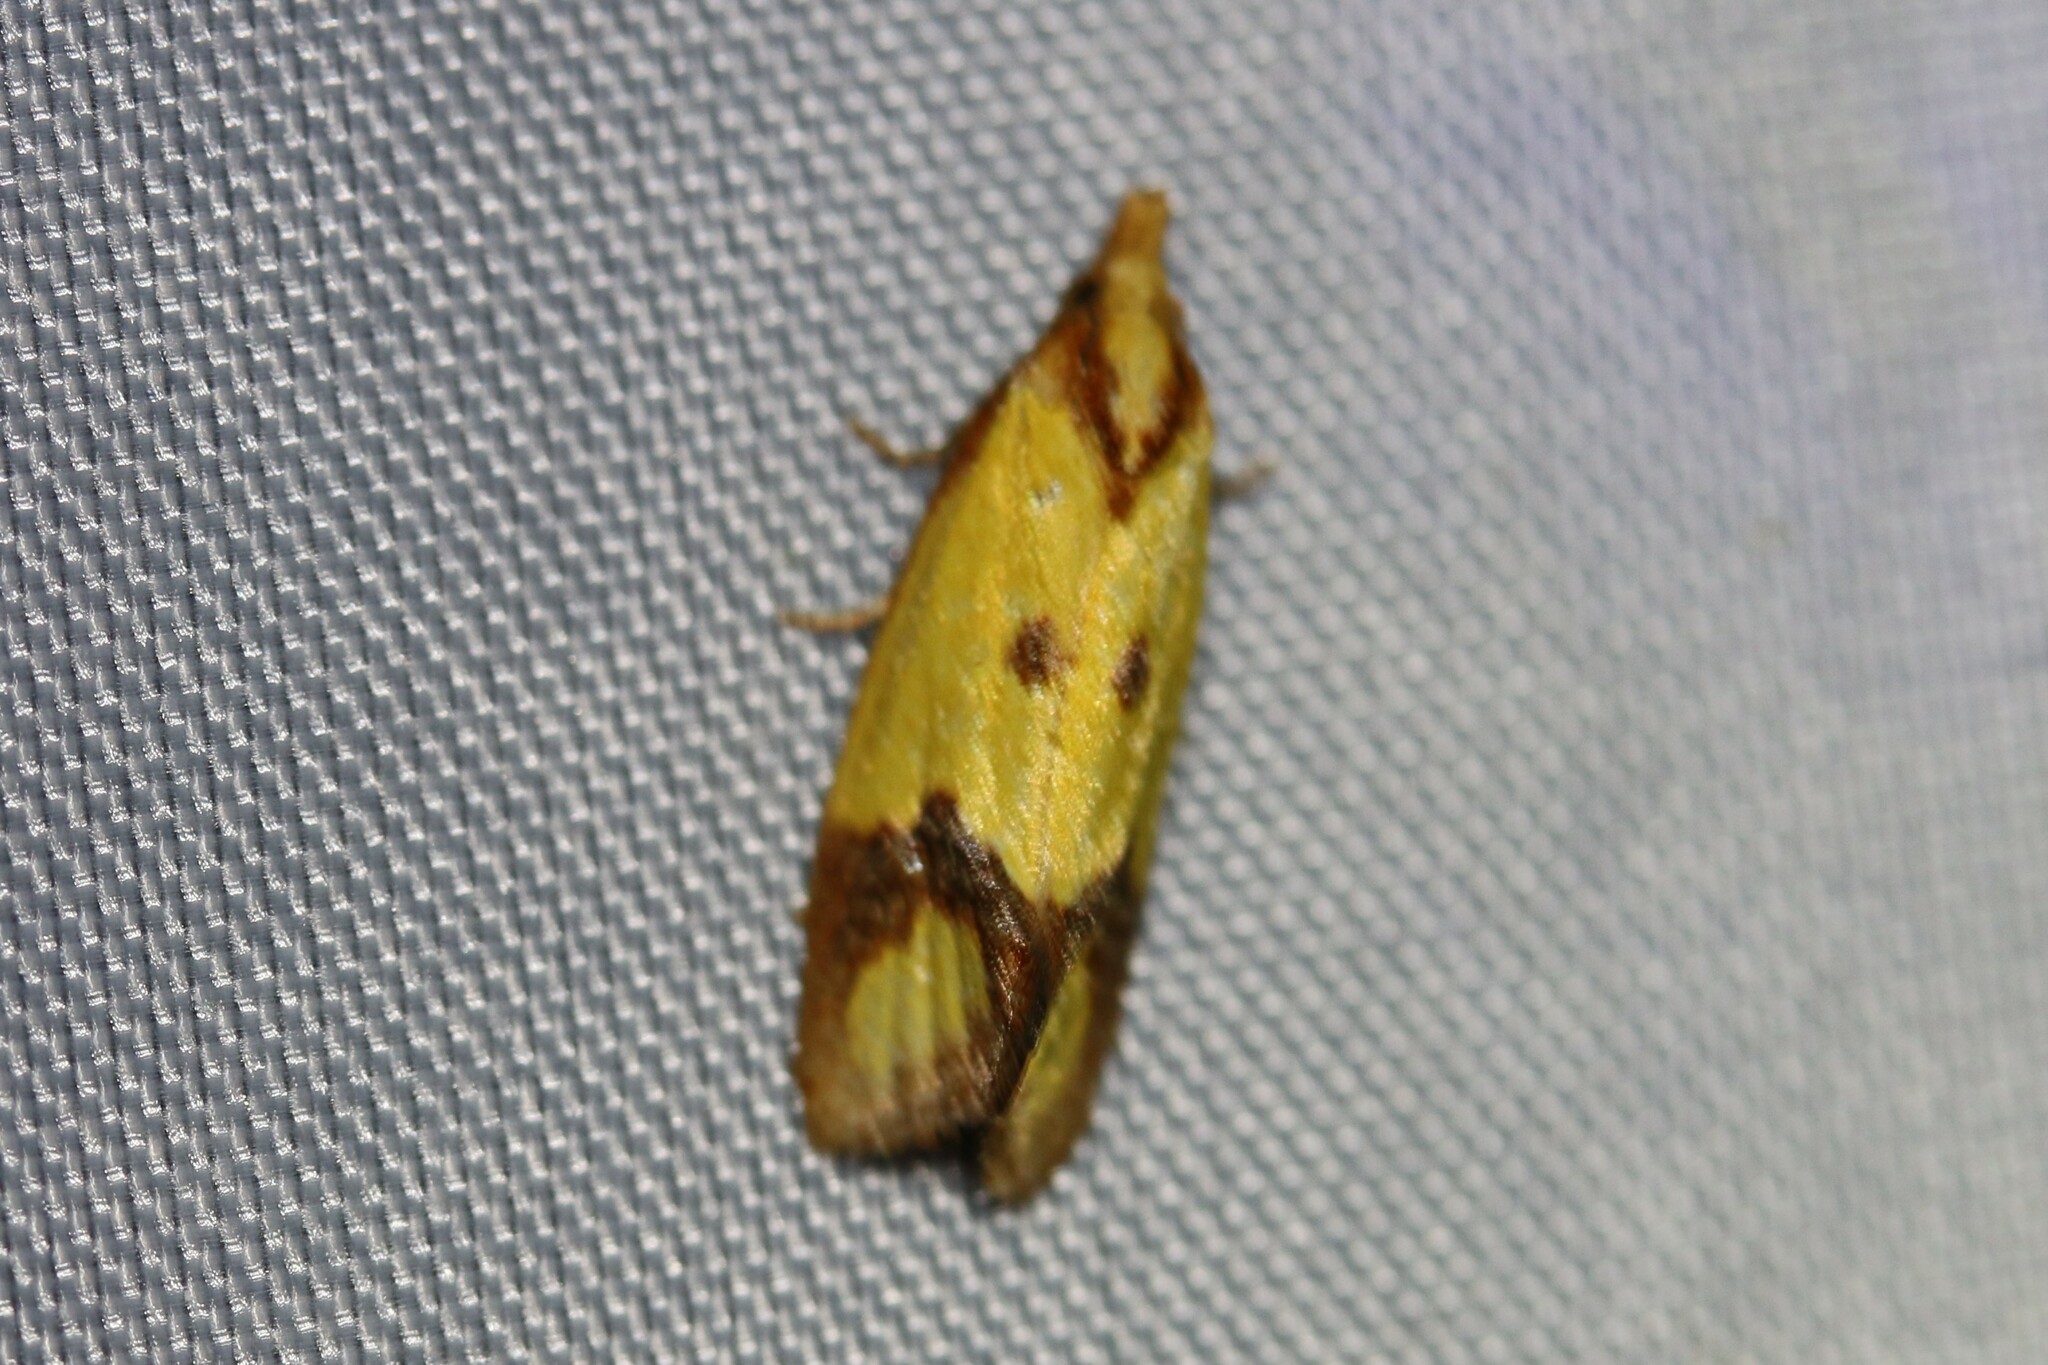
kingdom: Animalia
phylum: Arthropoda
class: Insecta
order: Lepidoptera
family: Tortricidae
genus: Agapeta
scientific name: Agapeta zoegana
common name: Sulfur knapweed root moth
